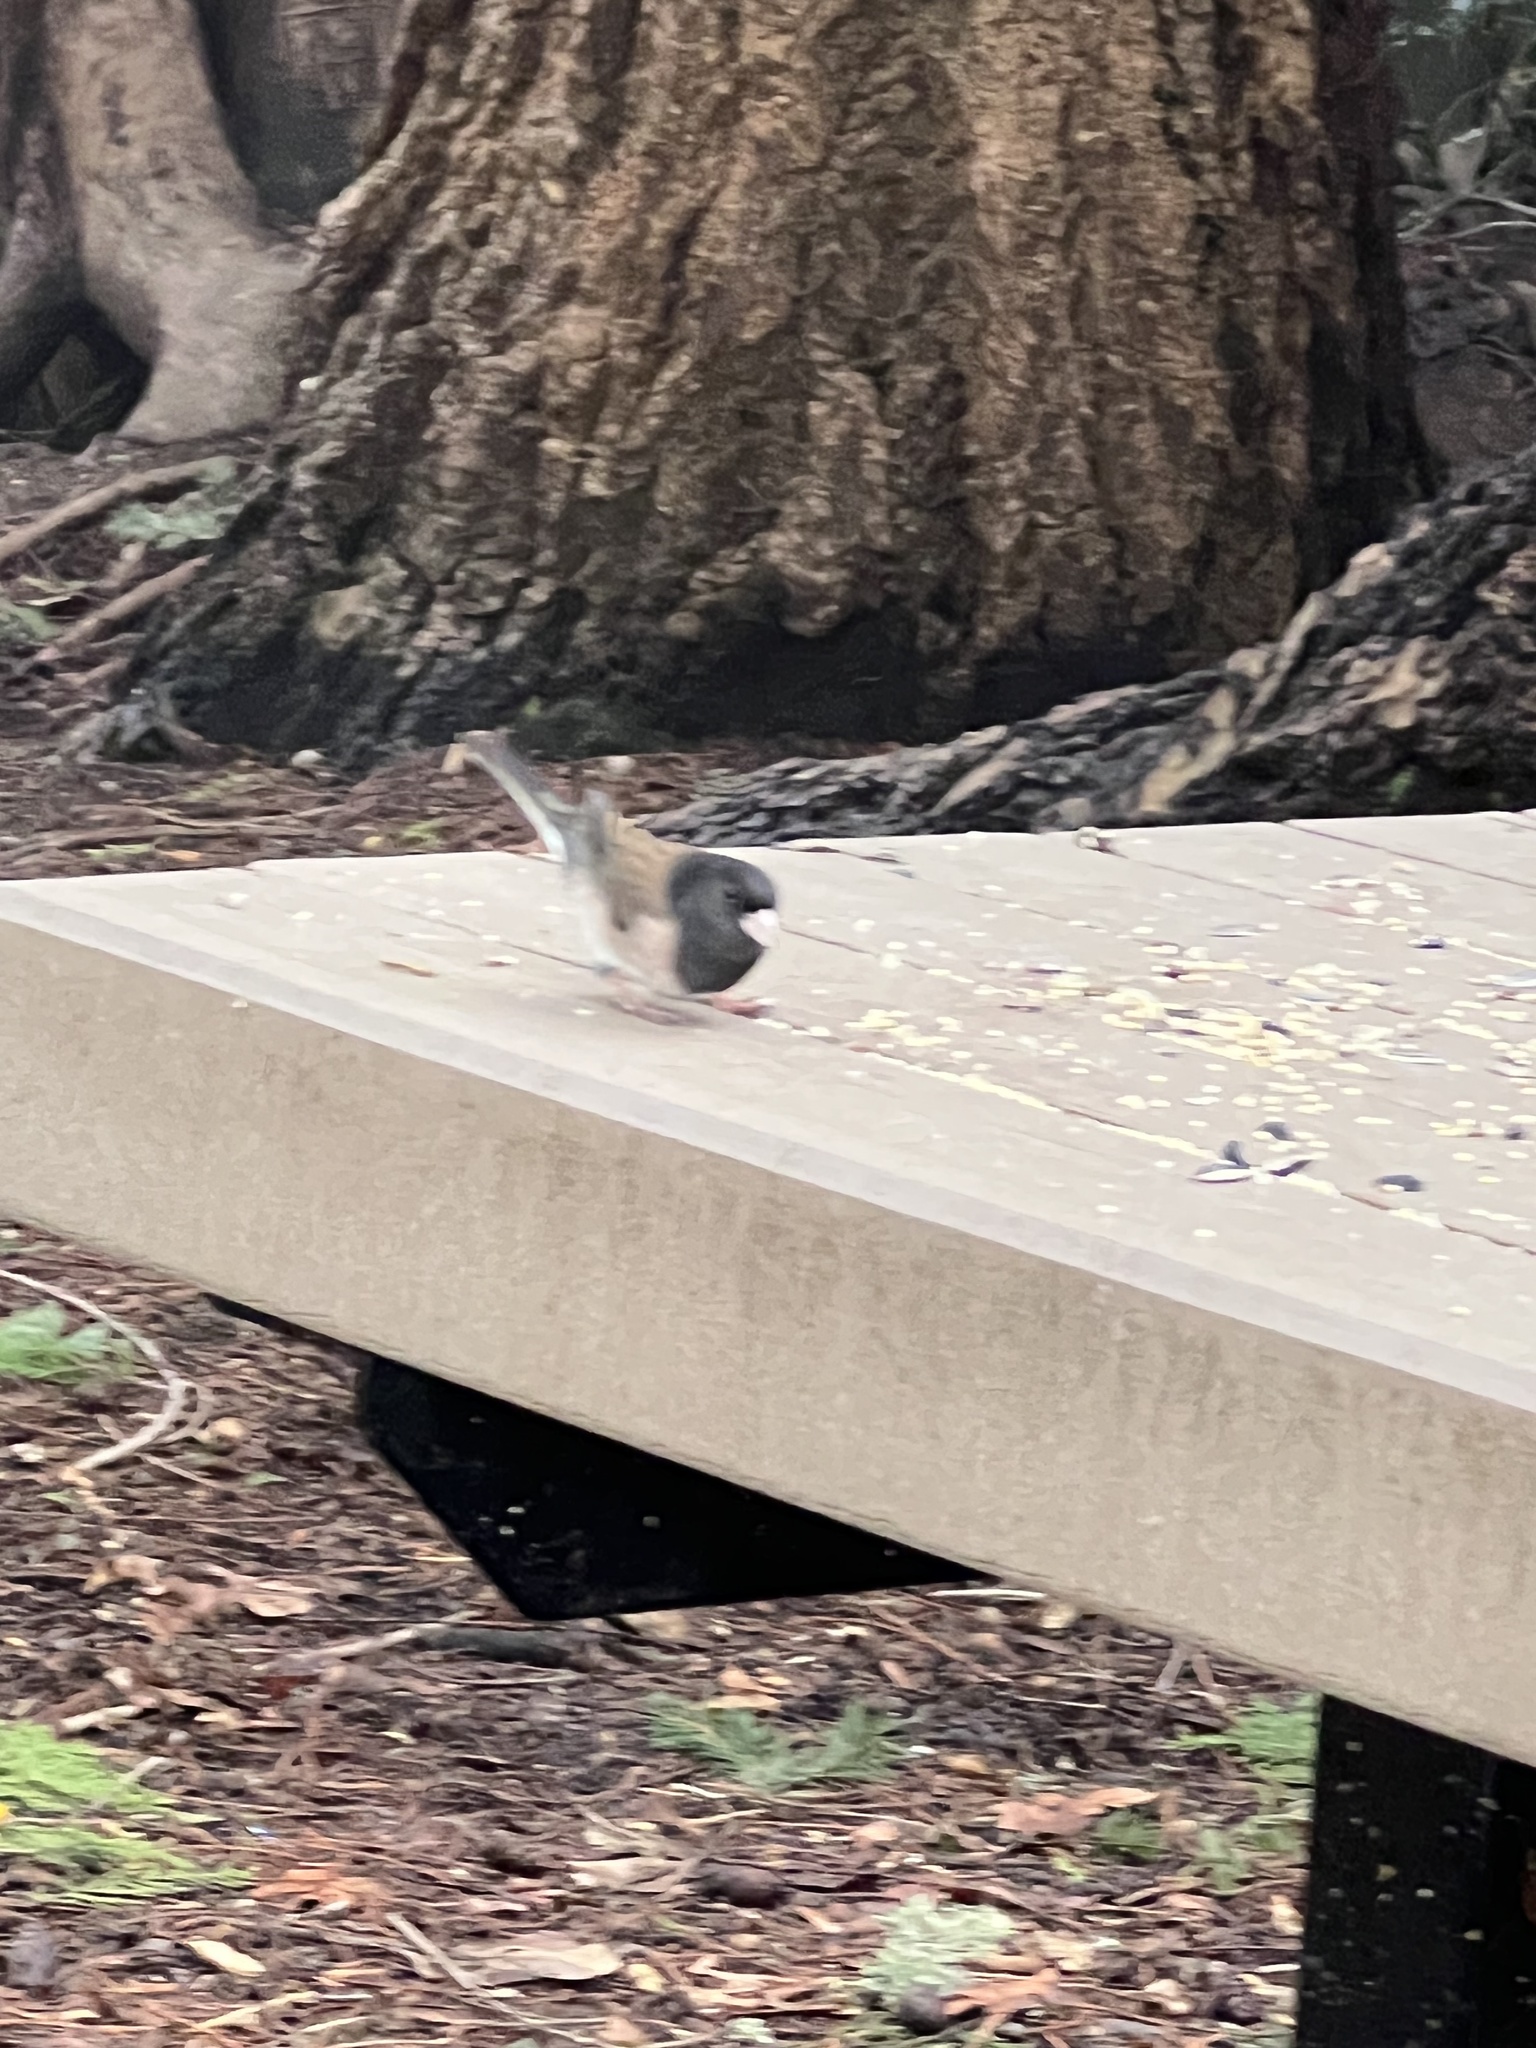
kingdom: Animalia
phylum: Chordata
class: Aves
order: Passeriformes
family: Passerellidae
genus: Junco
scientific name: Junco hyemalis
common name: Dark-eyed junco
